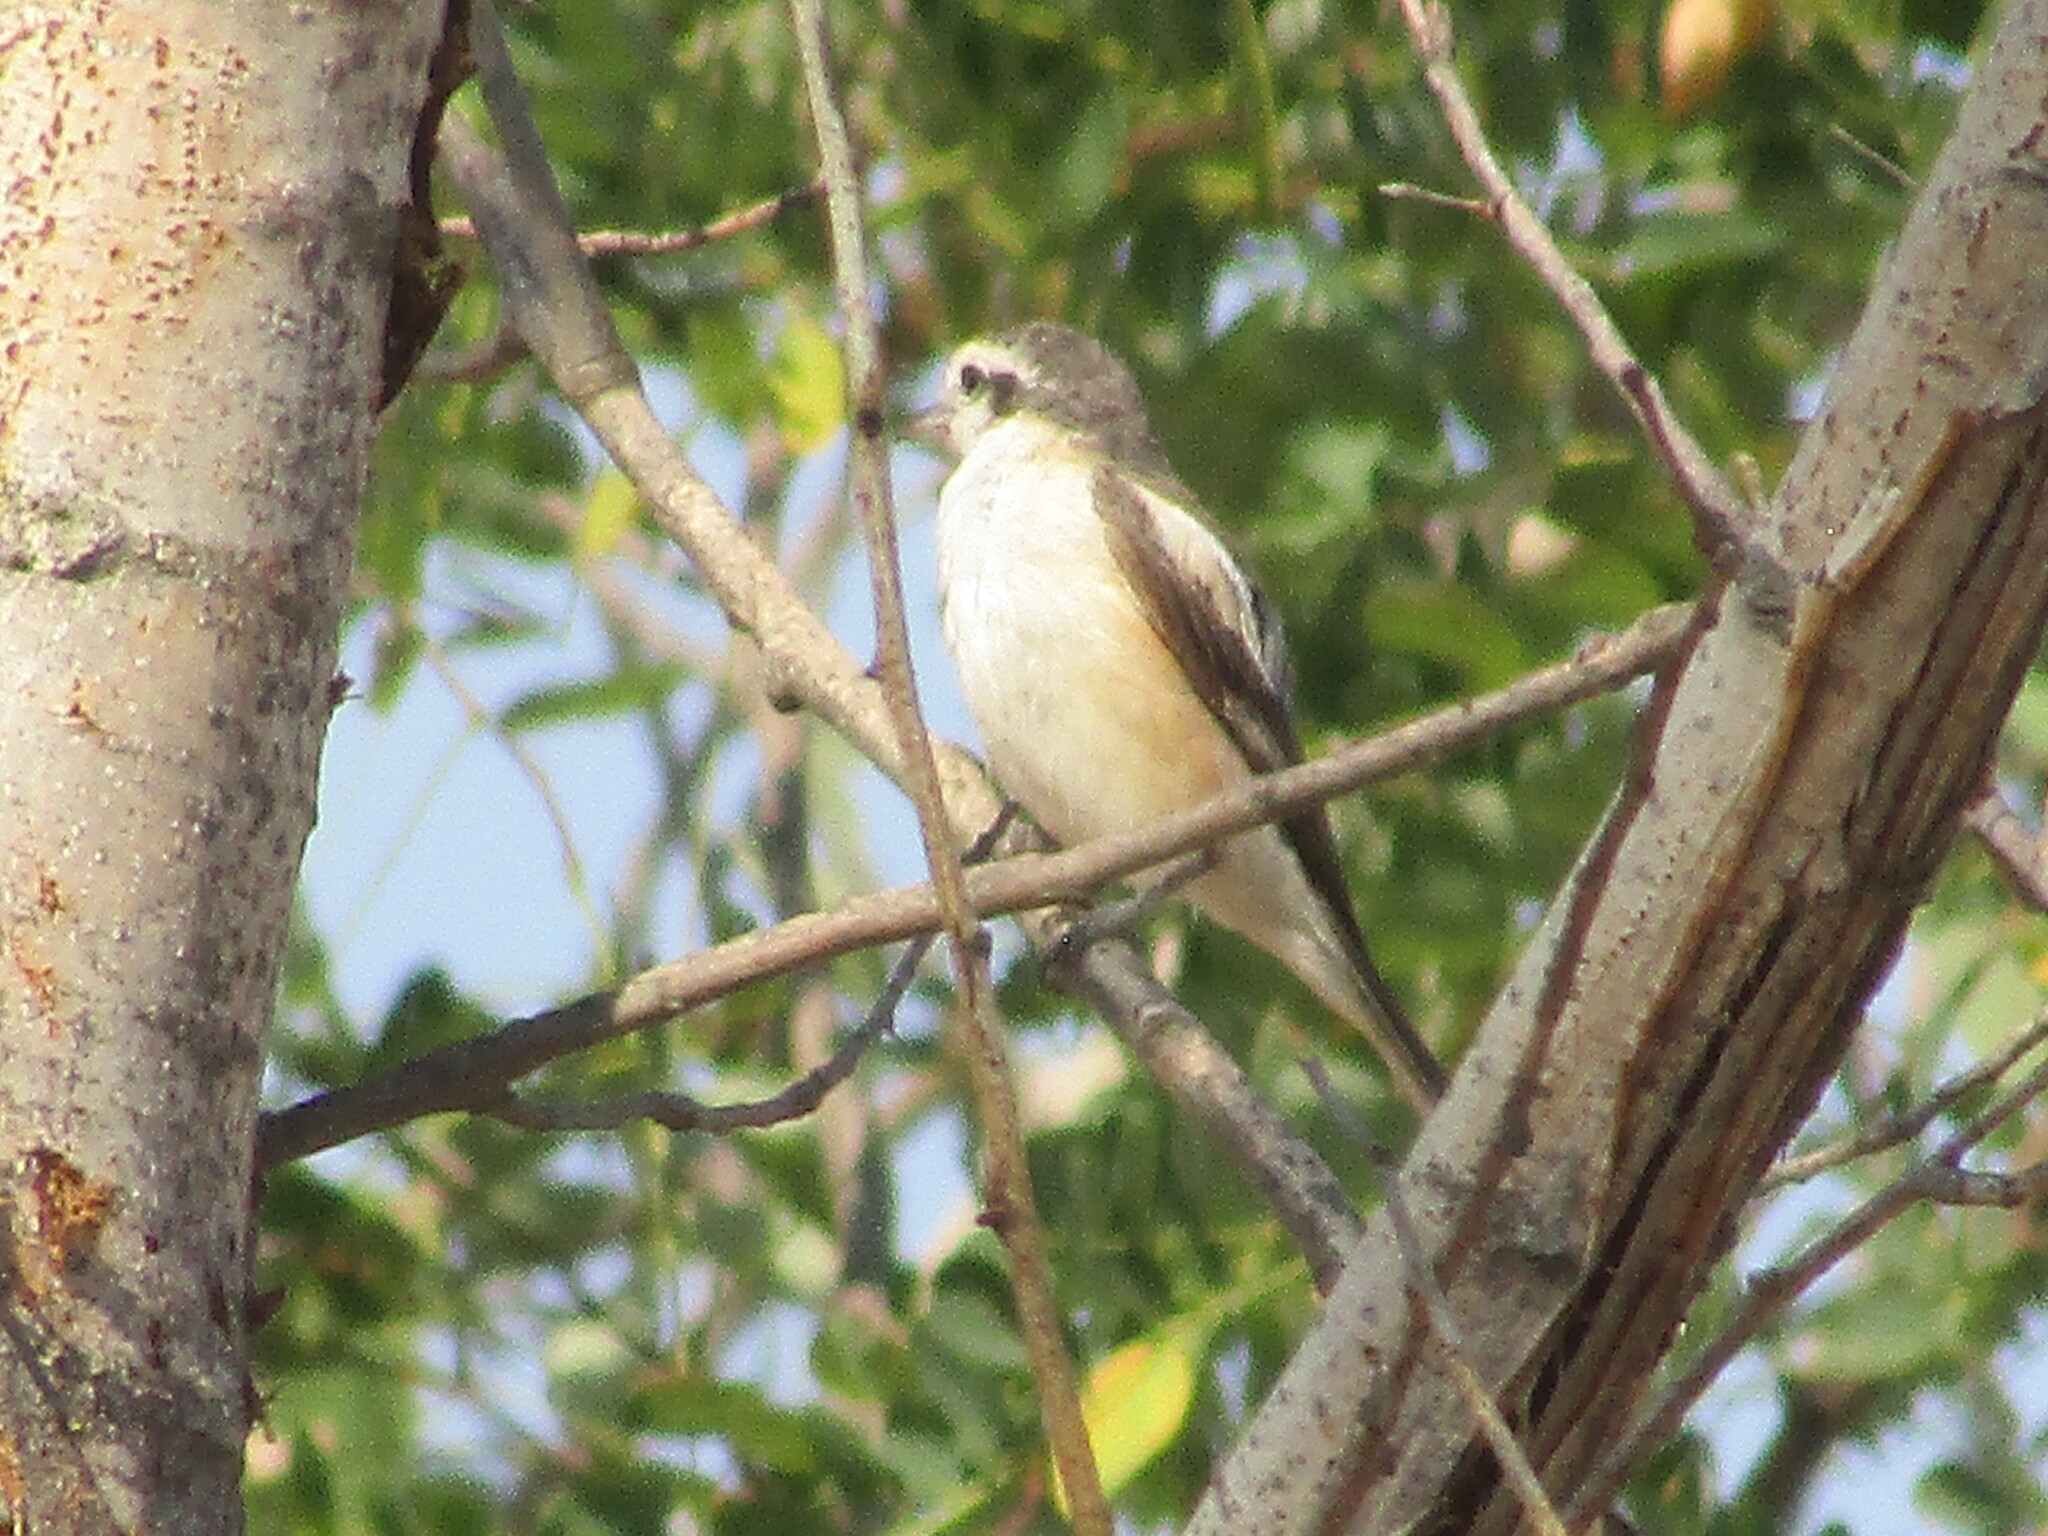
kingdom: Animalia
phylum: Chordata
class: Aves
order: Passeriformes
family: Laniidae
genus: Lanius
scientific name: Lanius nubicus
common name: Masked shrike
